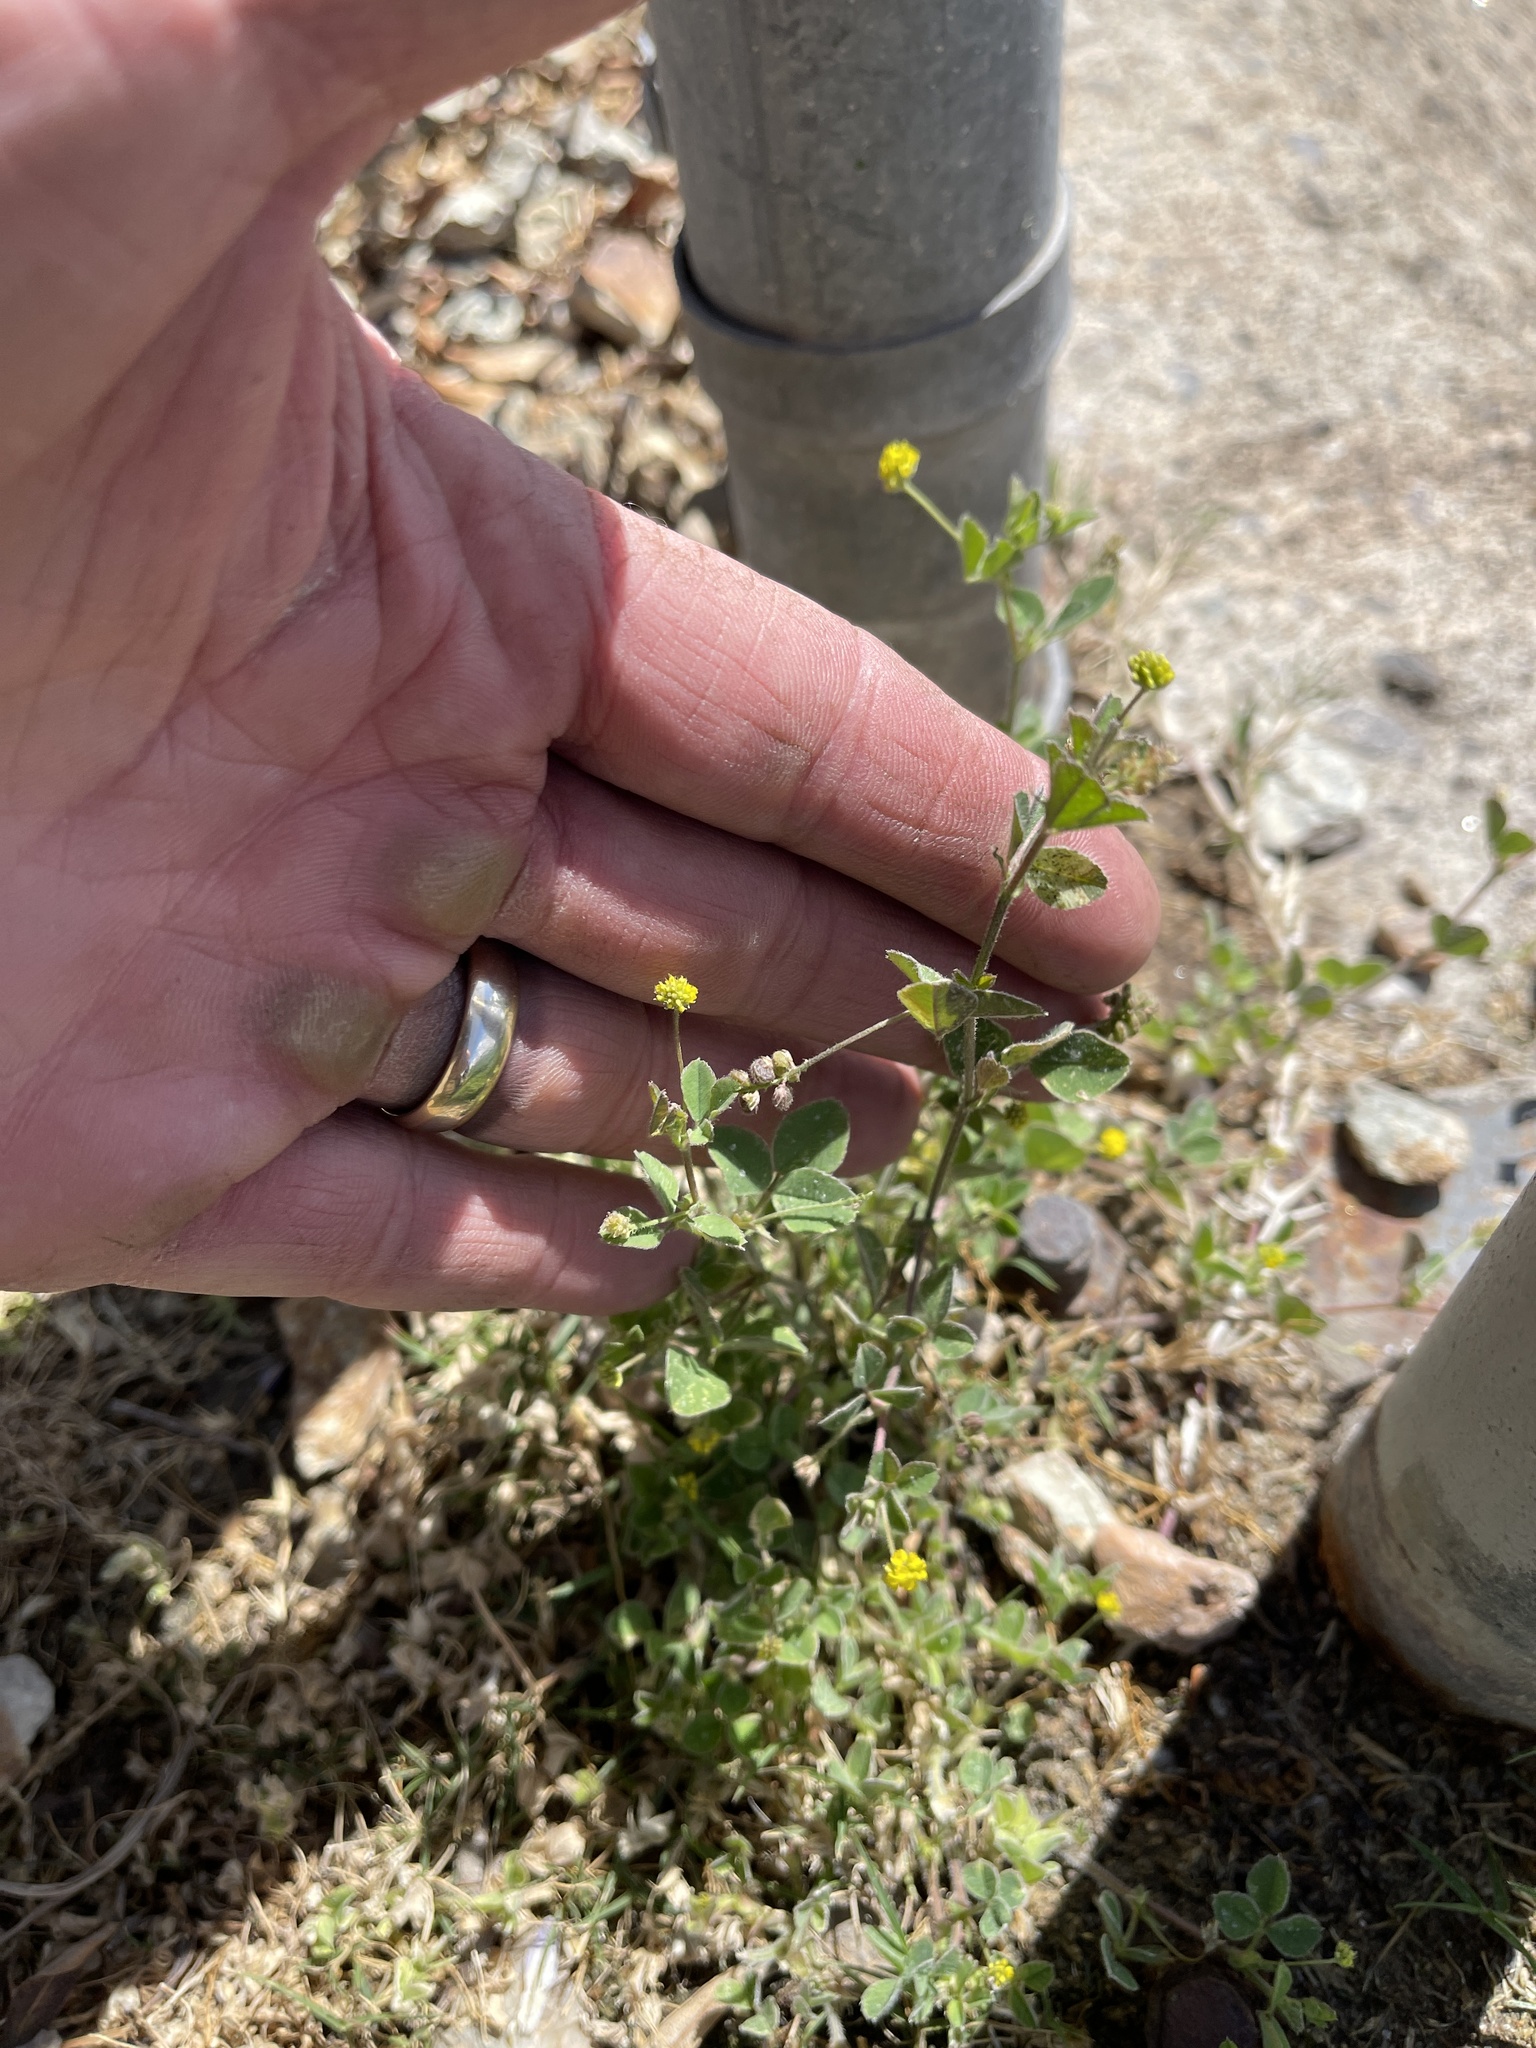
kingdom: Plantae
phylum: Tracheophyta
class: Magnoliopsida
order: Fabales
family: Fabaceae
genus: Medicago
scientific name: Medicago lupulina
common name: Black medick
